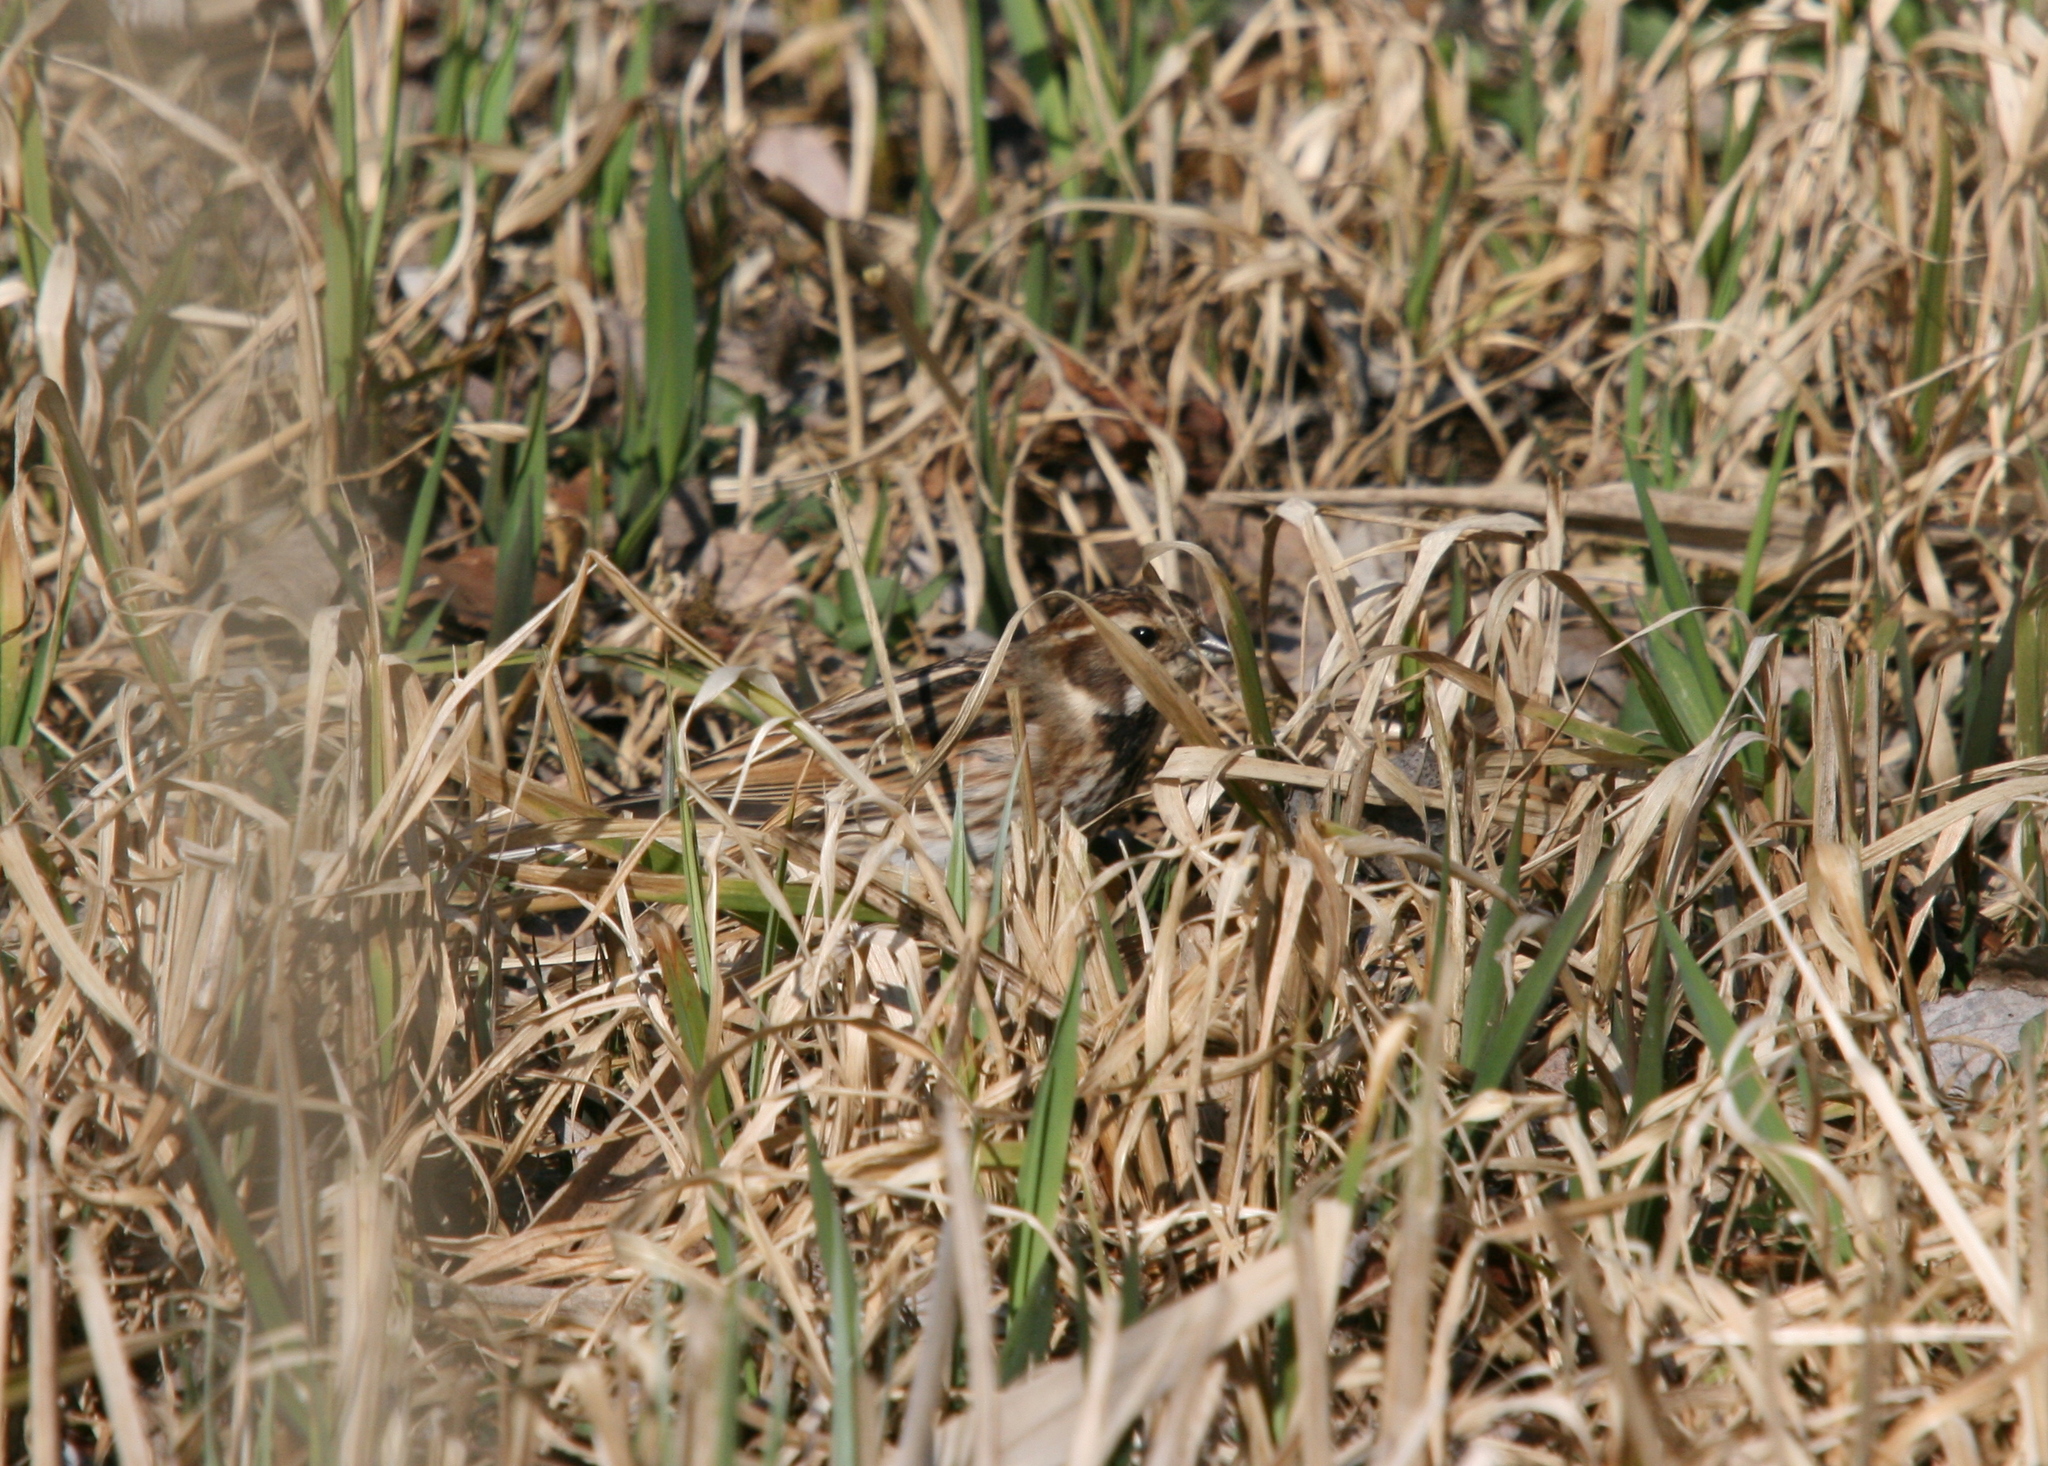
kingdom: Animalia
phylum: Chordata
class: Aves
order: Passeriformes
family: Emberizidae
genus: Emberiza
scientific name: Emberiza schoeniclus
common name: Reed bunting
